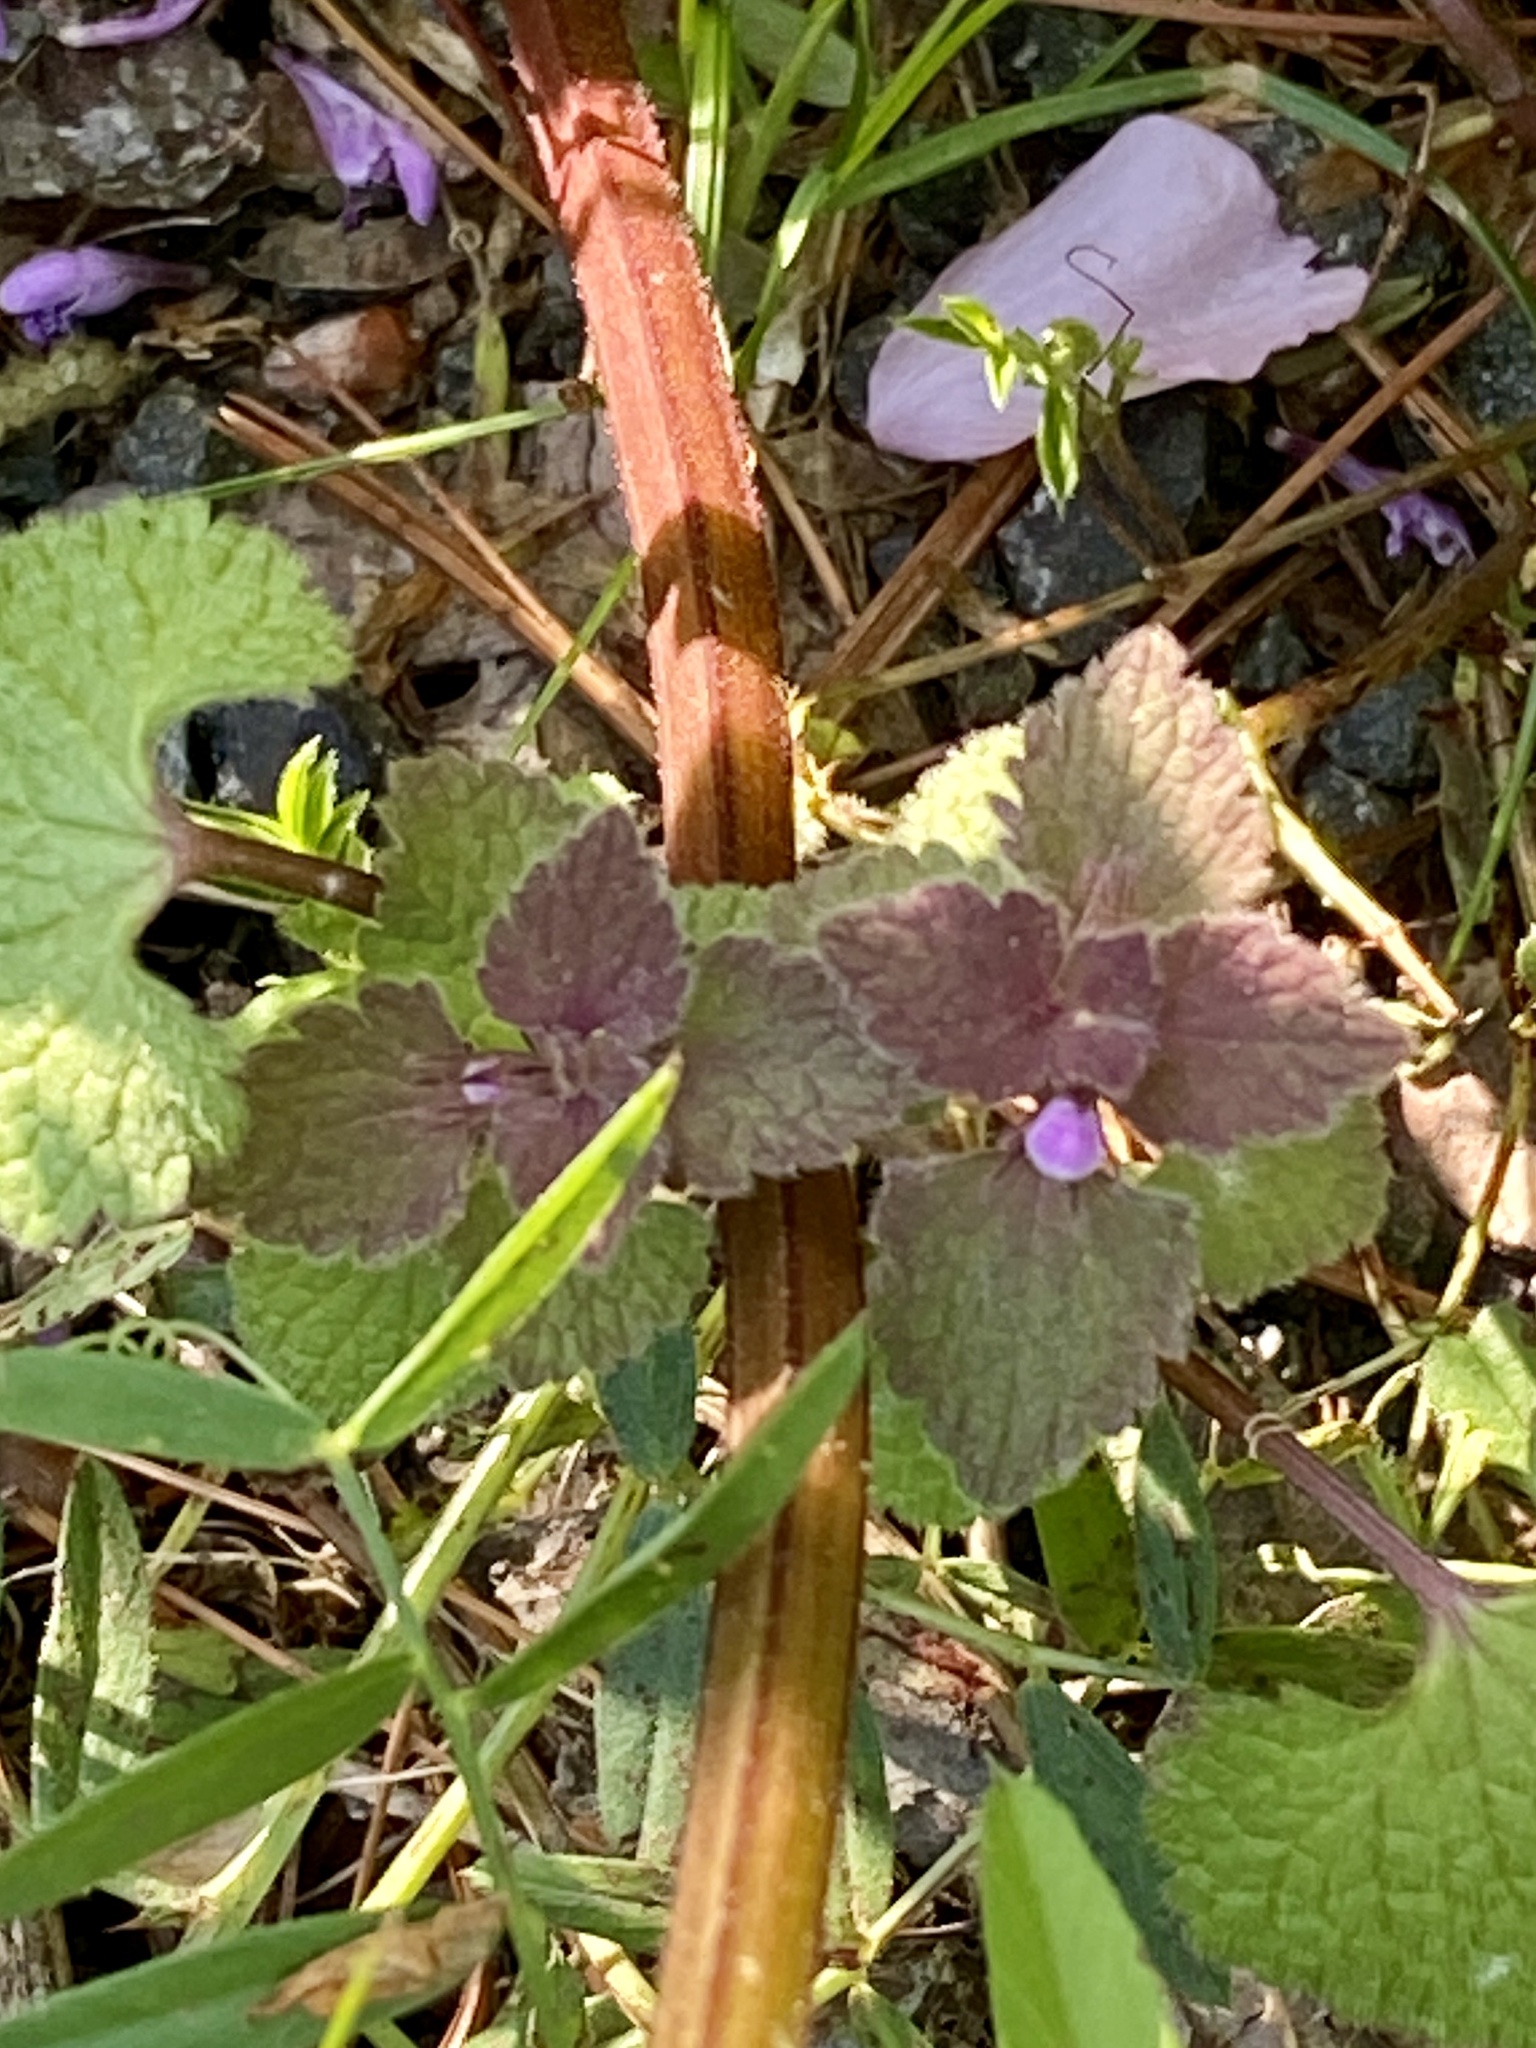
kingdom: Plantae
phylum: Tracheophyta
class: Magnoliopsida
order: Lamiales
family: Lamiaceae
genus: Lamium
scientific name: Lamium purpureum
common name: Red dead-nettle
